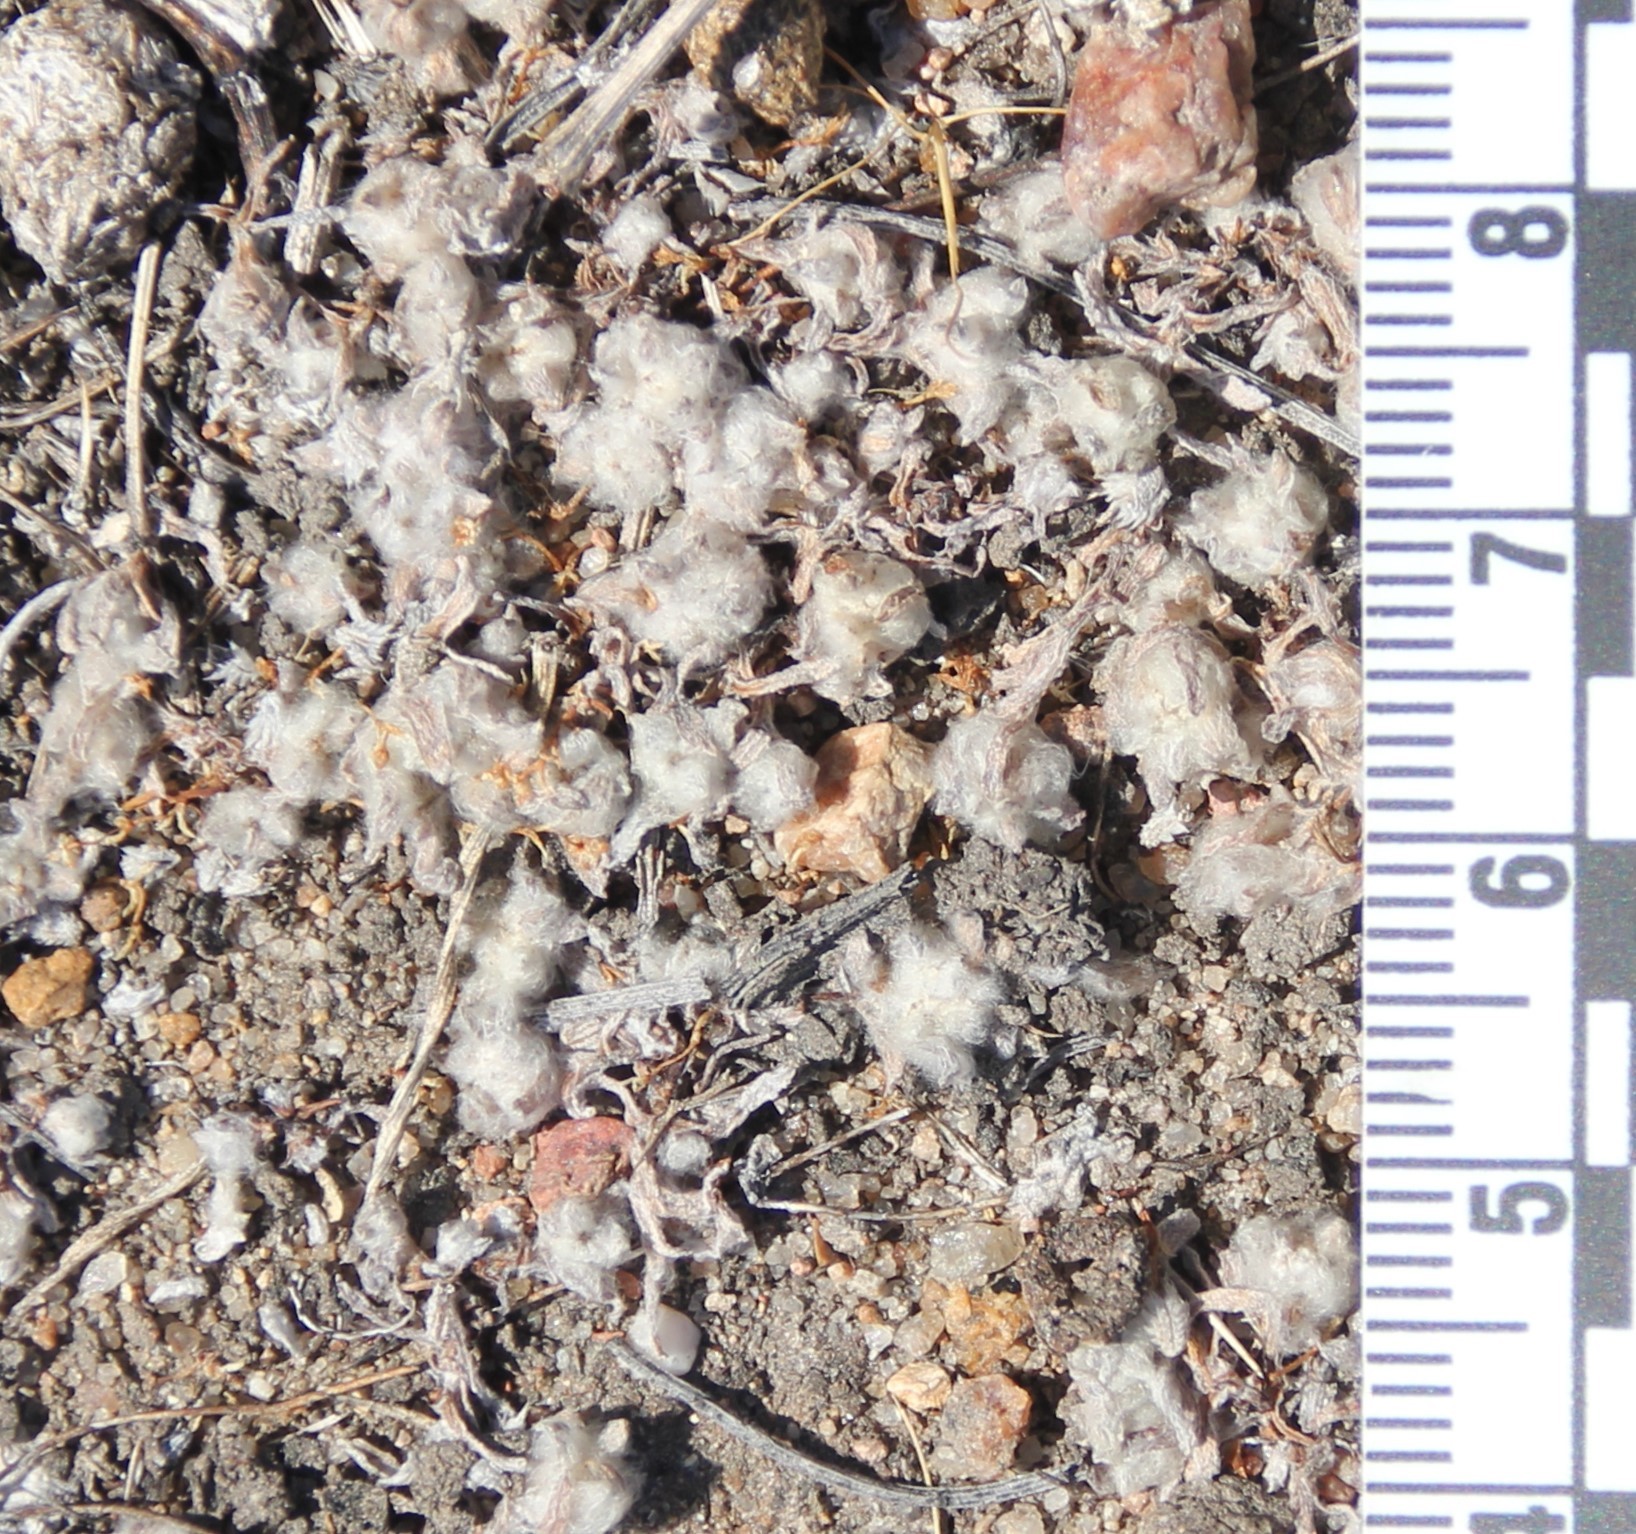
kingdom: Plantae
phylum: Tracheophyta
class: Magnoliopsida
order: Asterales
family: Asteraceae
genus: Psilocarphus
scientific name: Psilocarphus brevissimus
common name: Dwarf woollyheads
